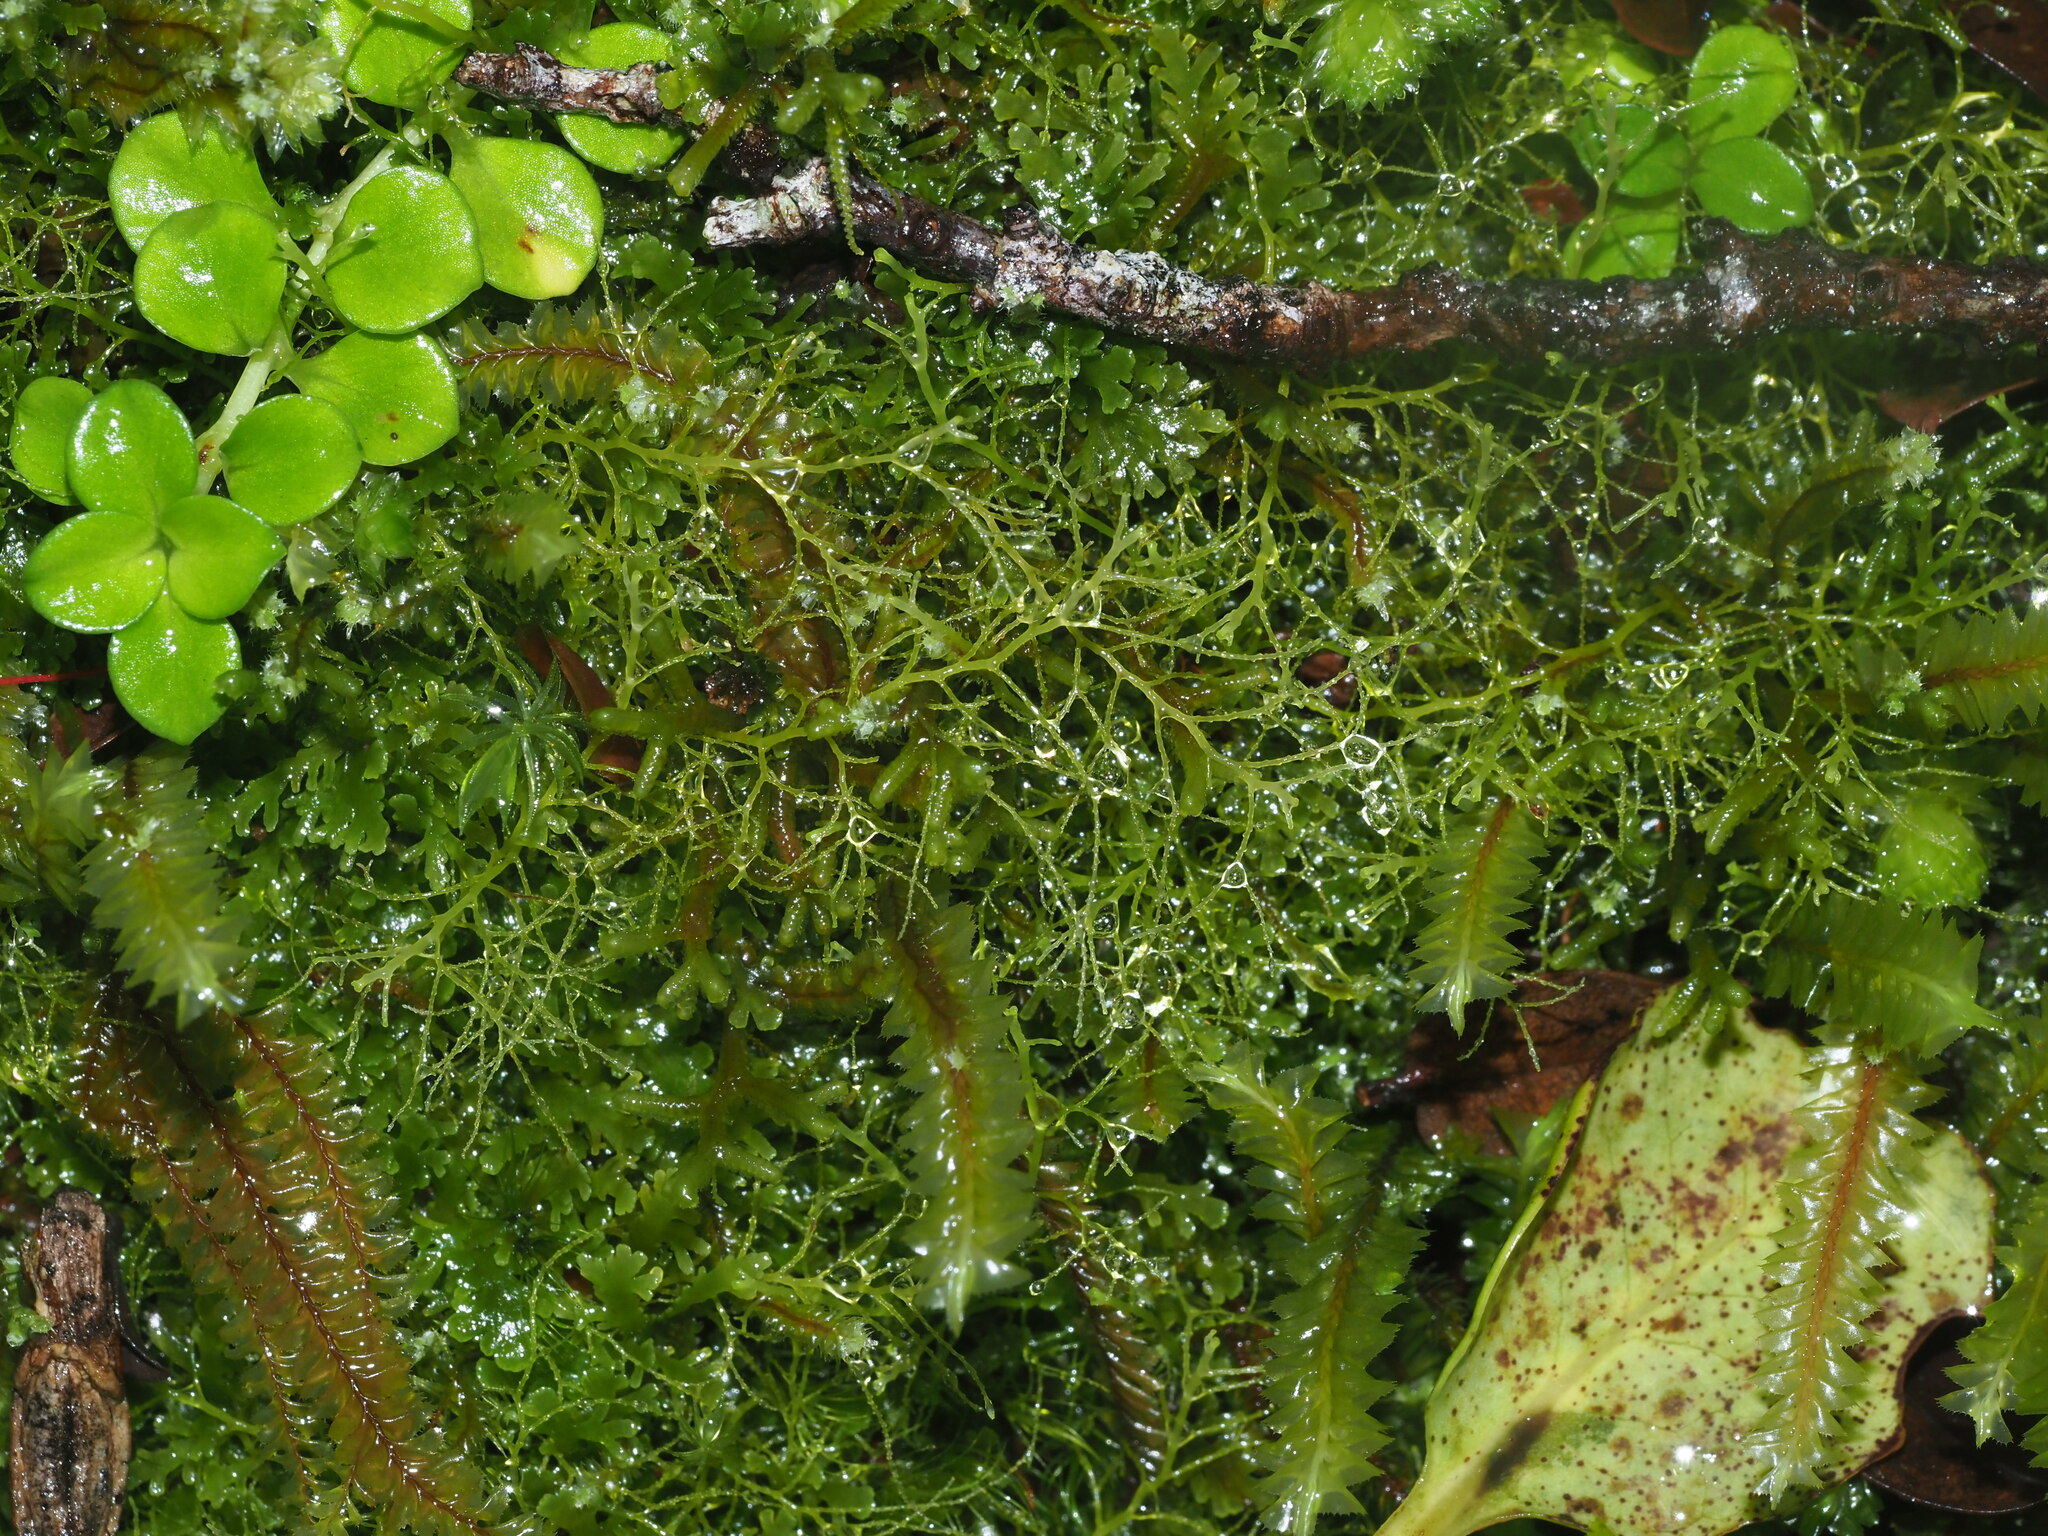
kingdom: Plantae
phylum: Marchantiophyta
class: Jungermanniopsida
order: Jungermanniales
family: Lepidoziaceae
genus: Lepidozia
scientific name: Lepidozia sandvicensis
